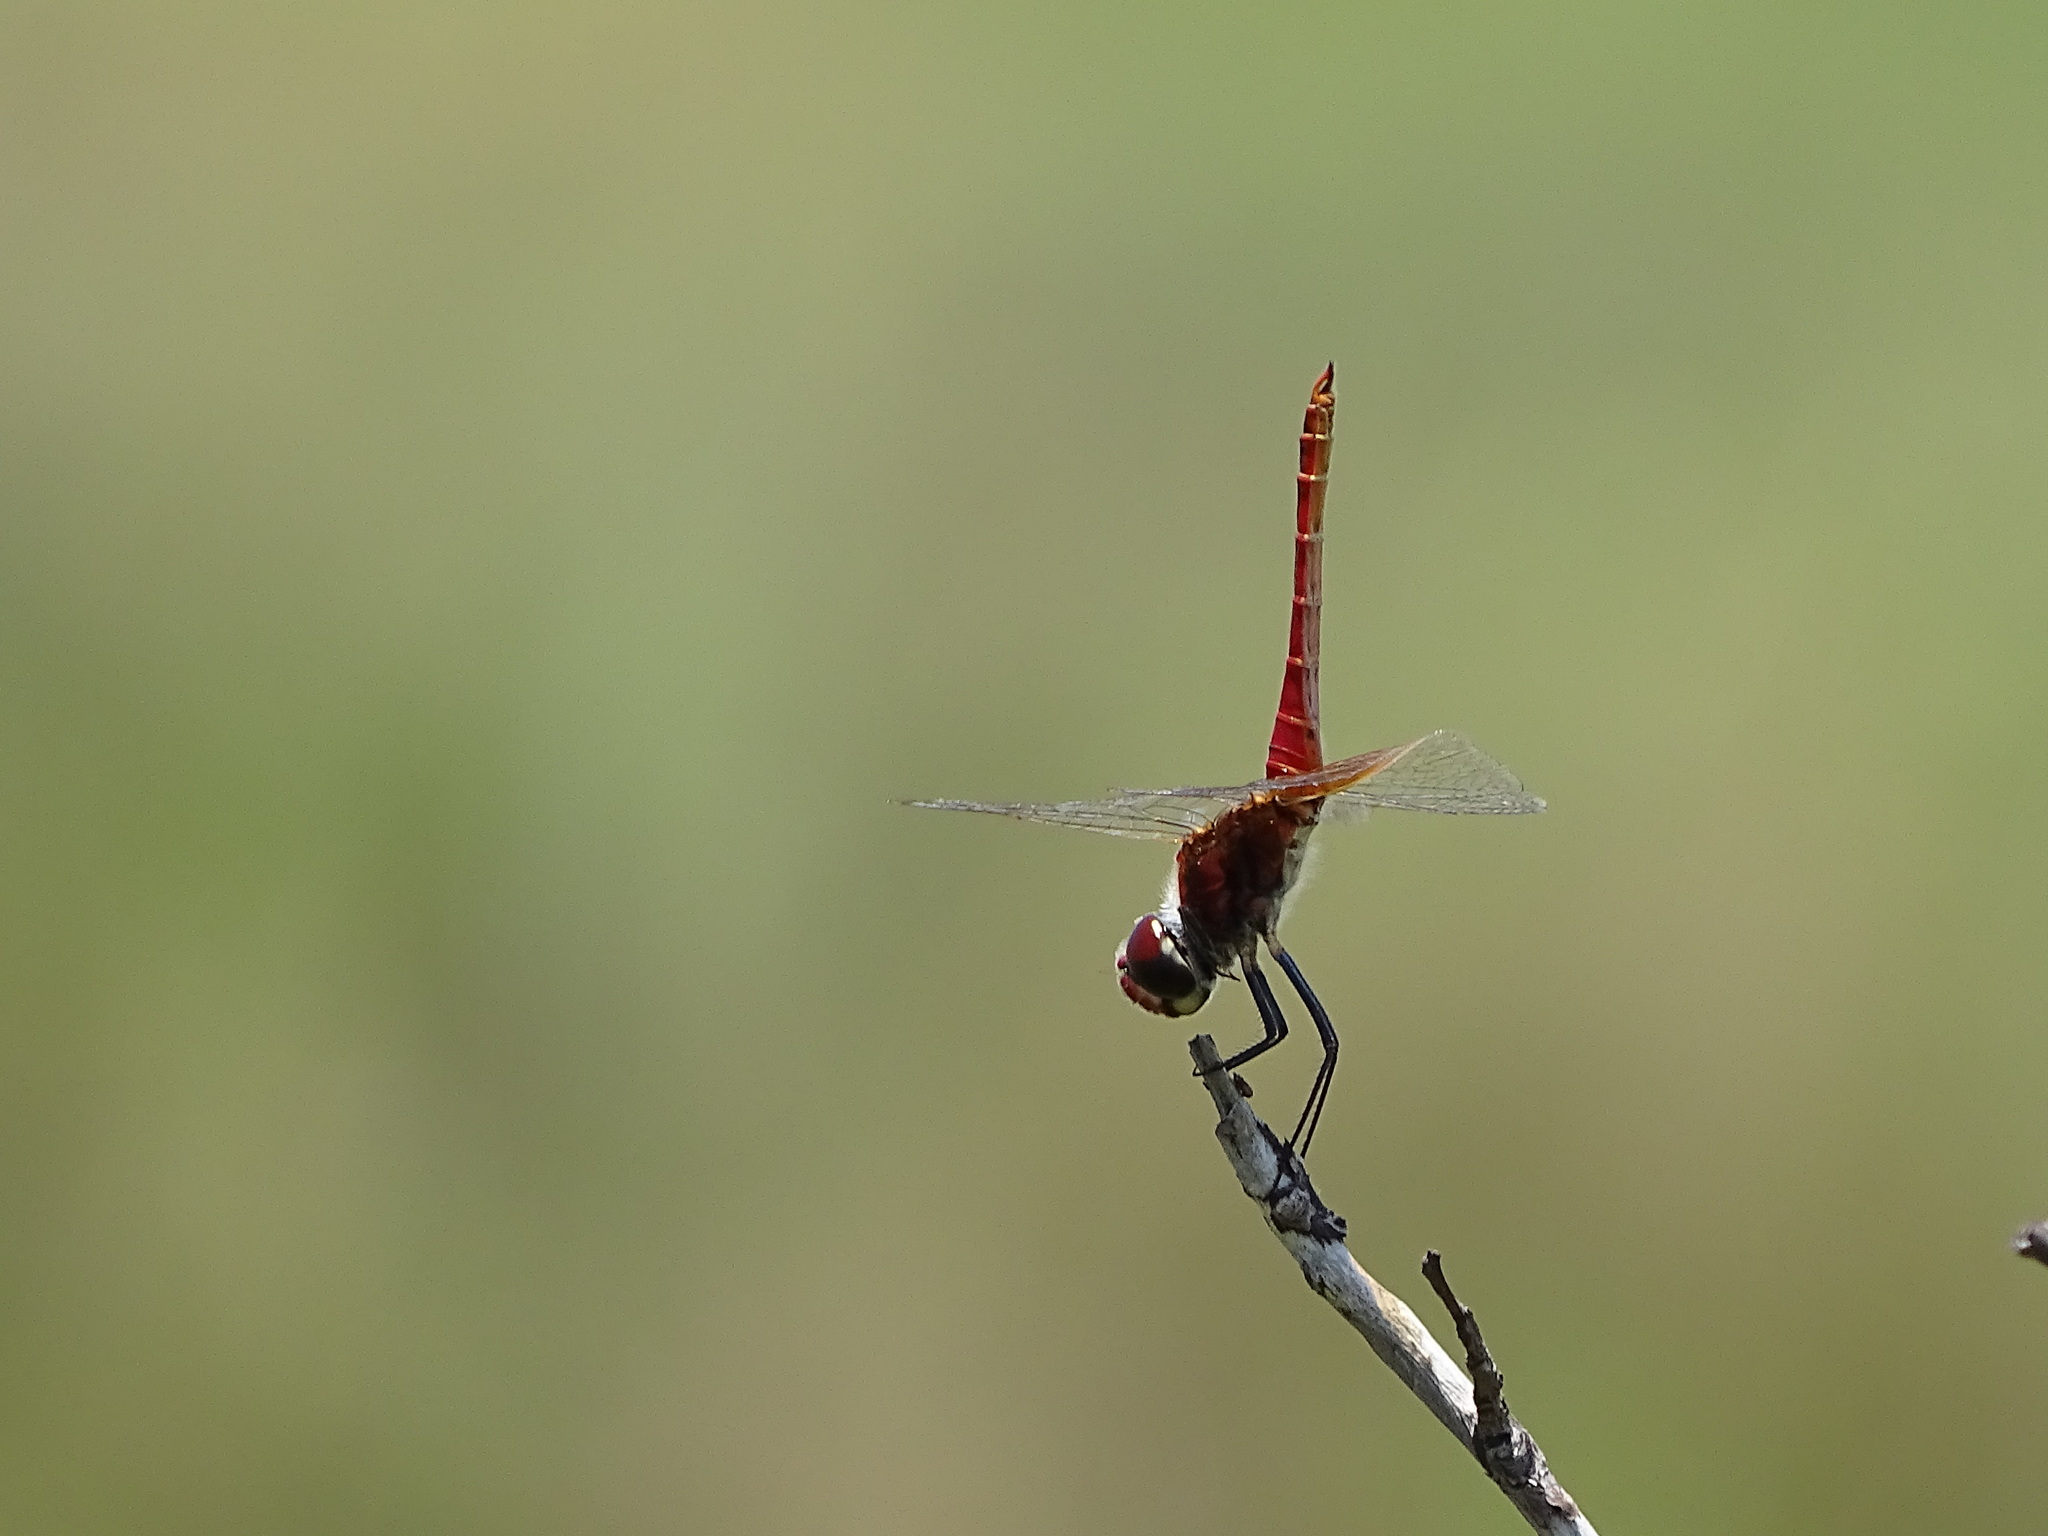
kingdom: Animalia
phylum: Arthropoda
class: Insecta
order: Odonata
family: Libellulidae
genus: Macrodiplax
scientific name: Macrodiplax cora
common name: Coastal glider
